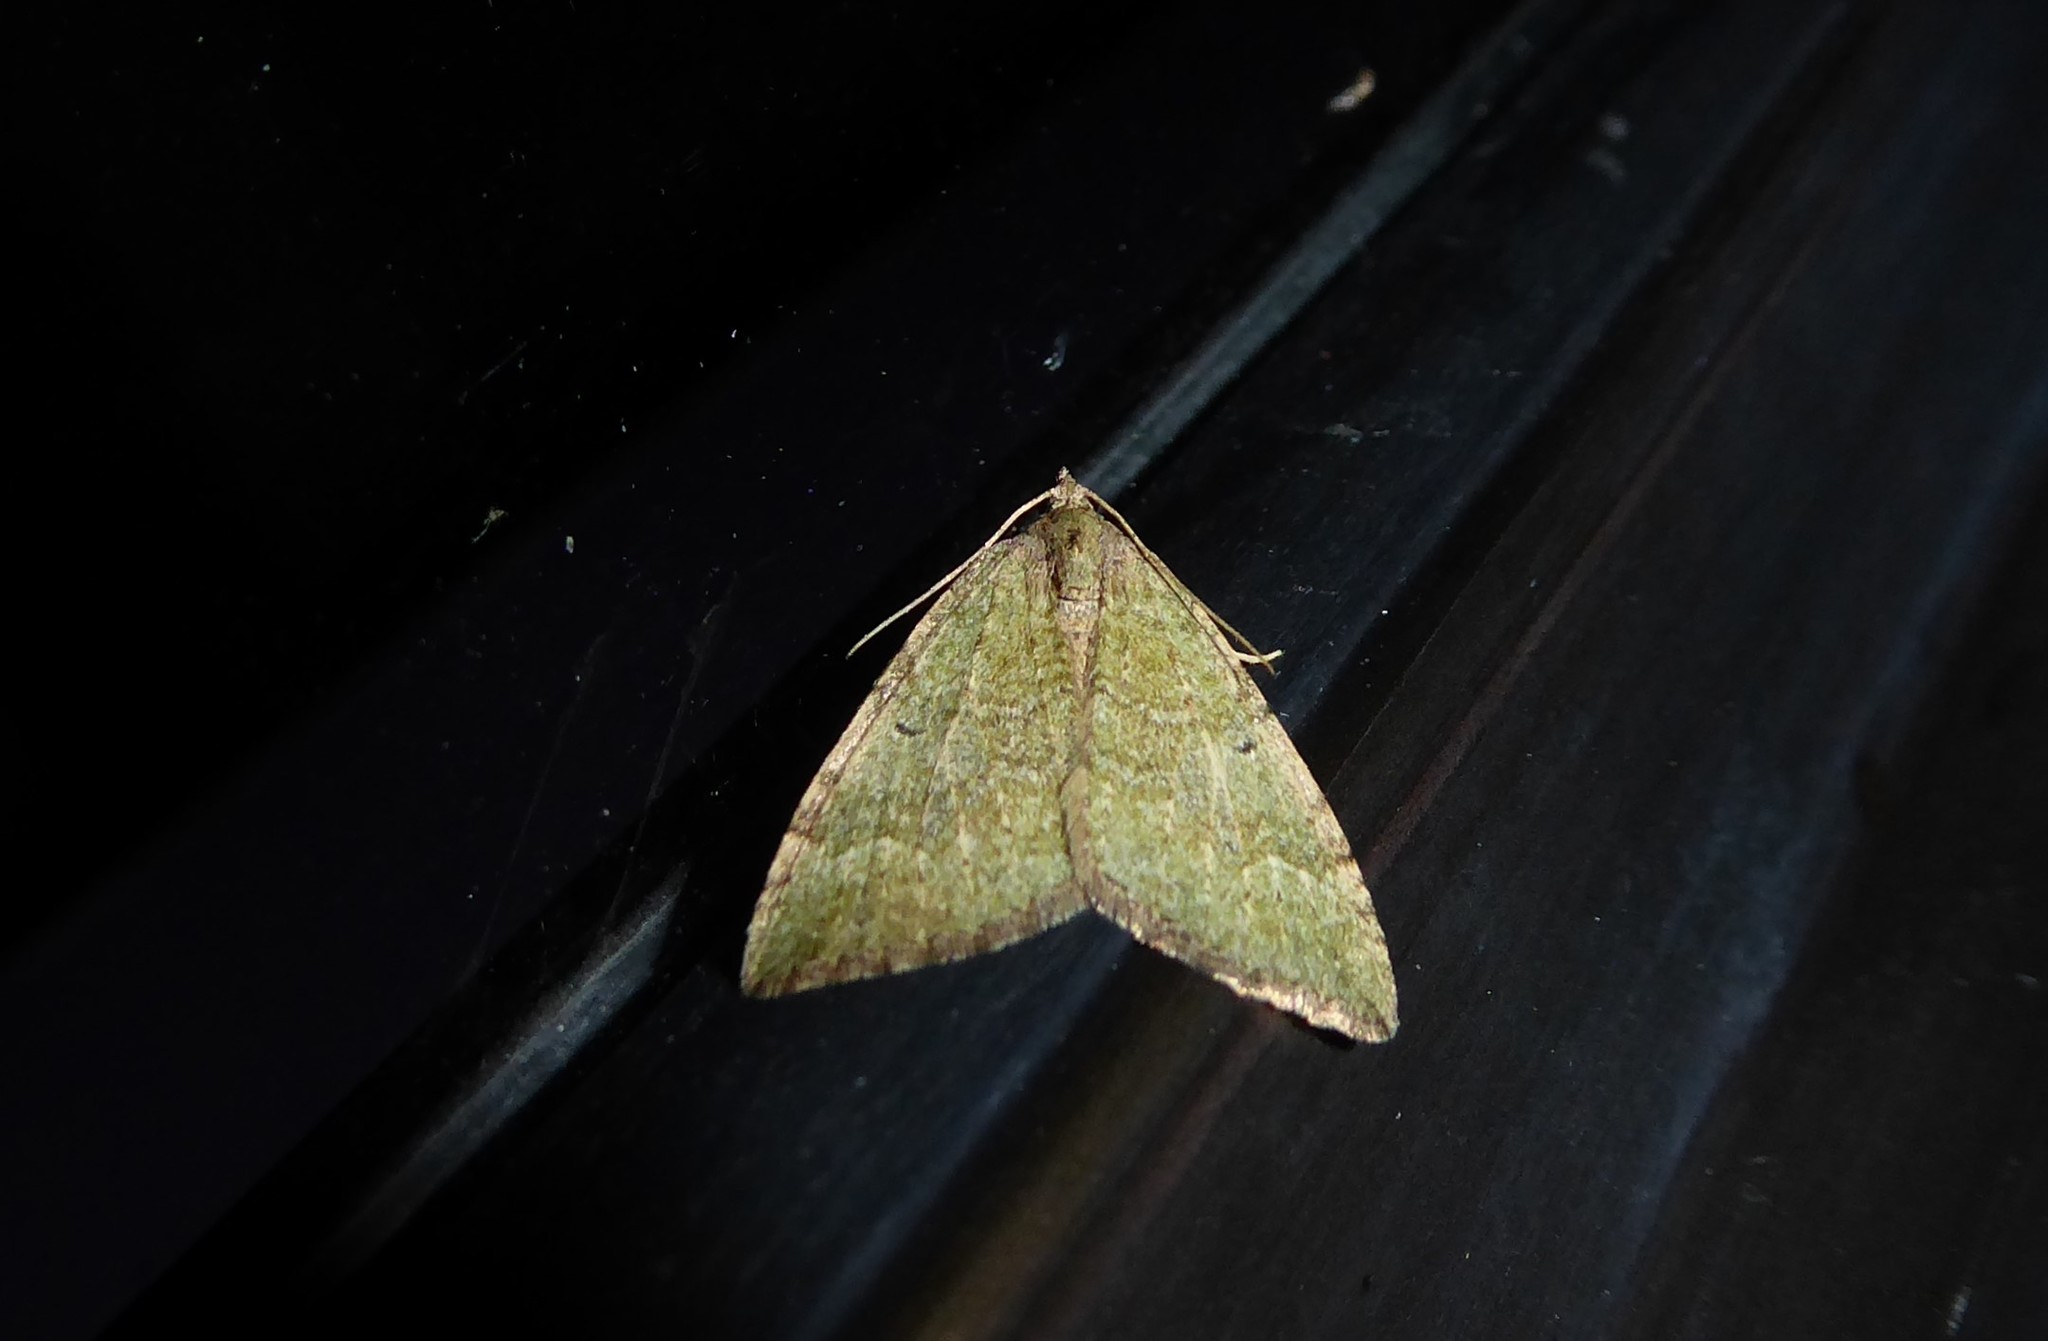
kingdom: Animalia
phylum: Arthropoda
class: Insecta
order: Lepidoptera
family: Geometridae
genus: Epyaxa
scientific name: Epyaxa rosearia
